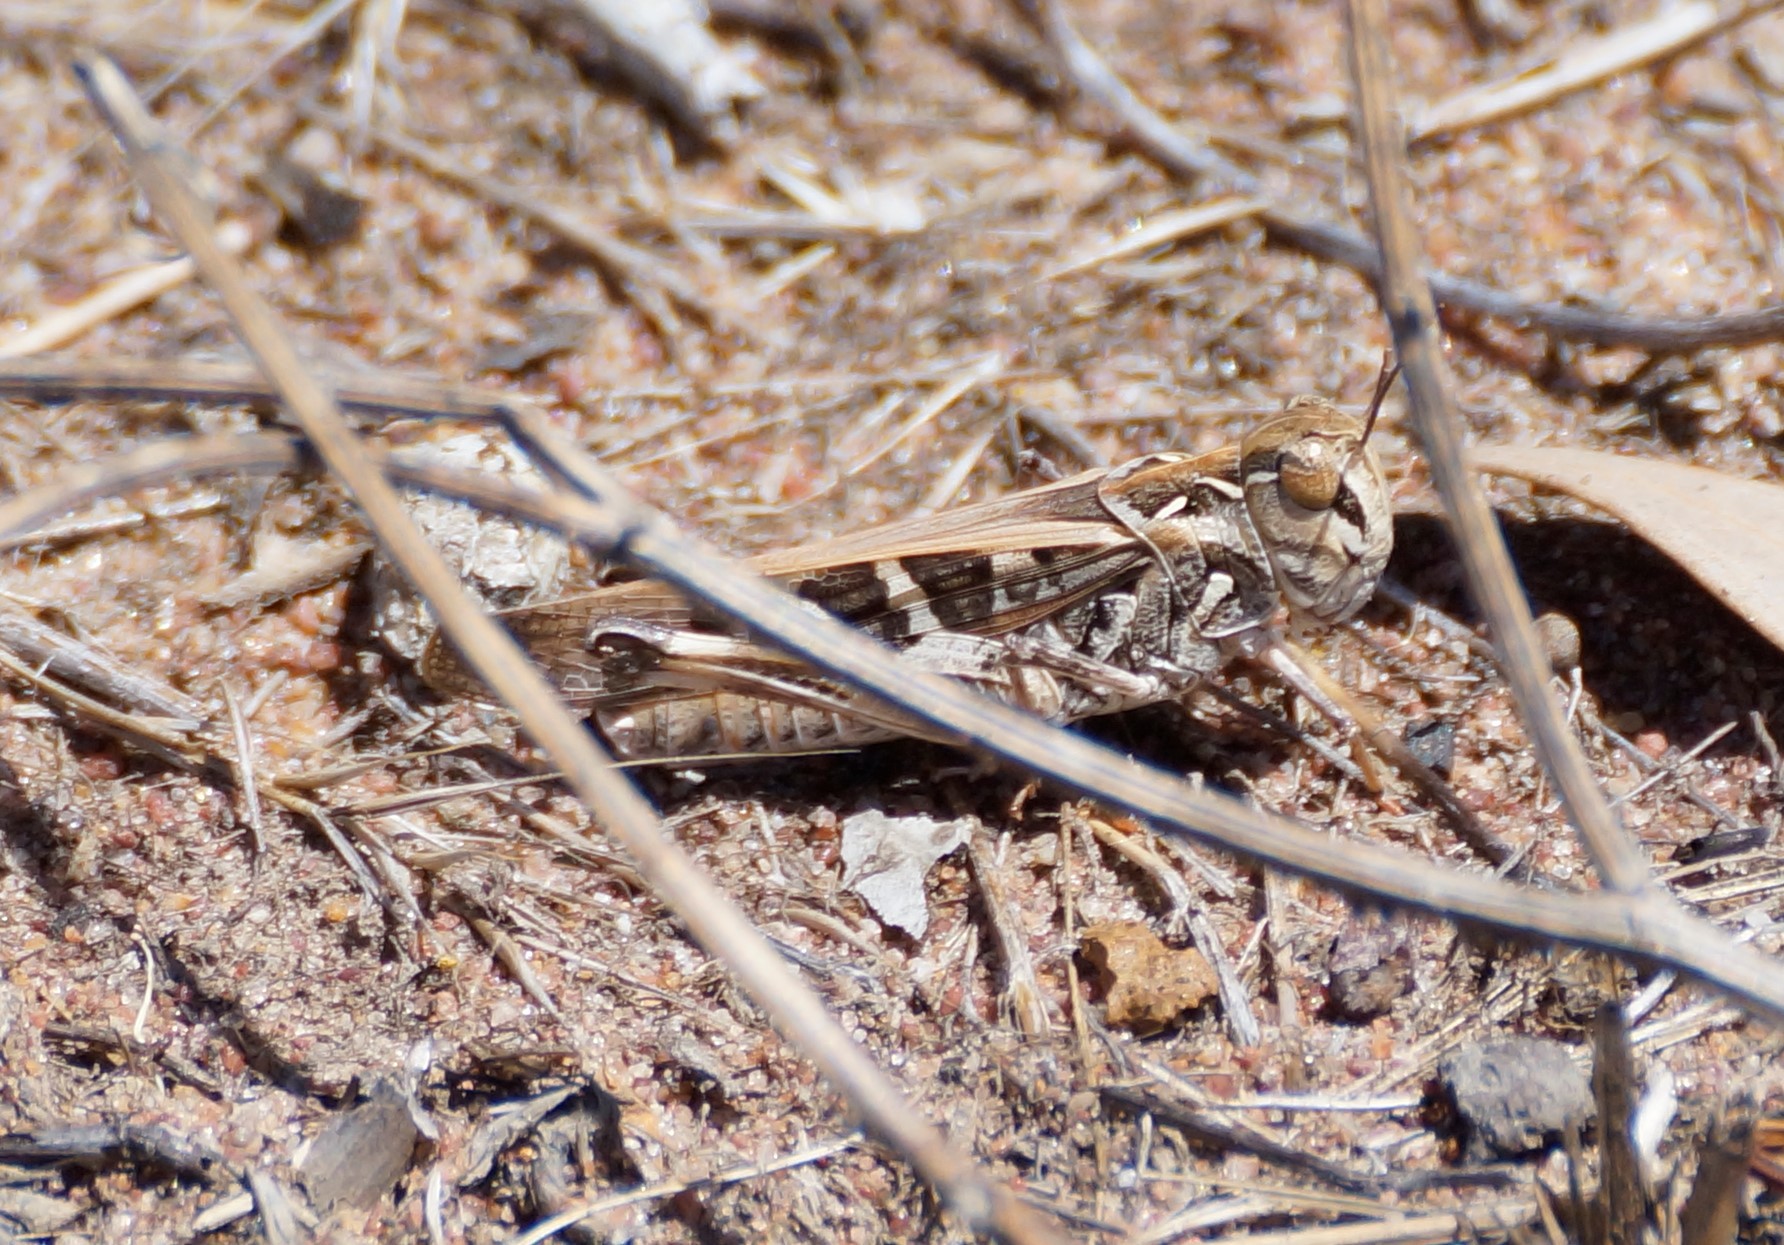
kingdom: Animalia
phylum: Arthropoda
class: Insecta
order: Orthoptera
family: Acrididae
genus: Oedaleus
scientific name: Oedaleus australis
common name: Eastern oedaleus
